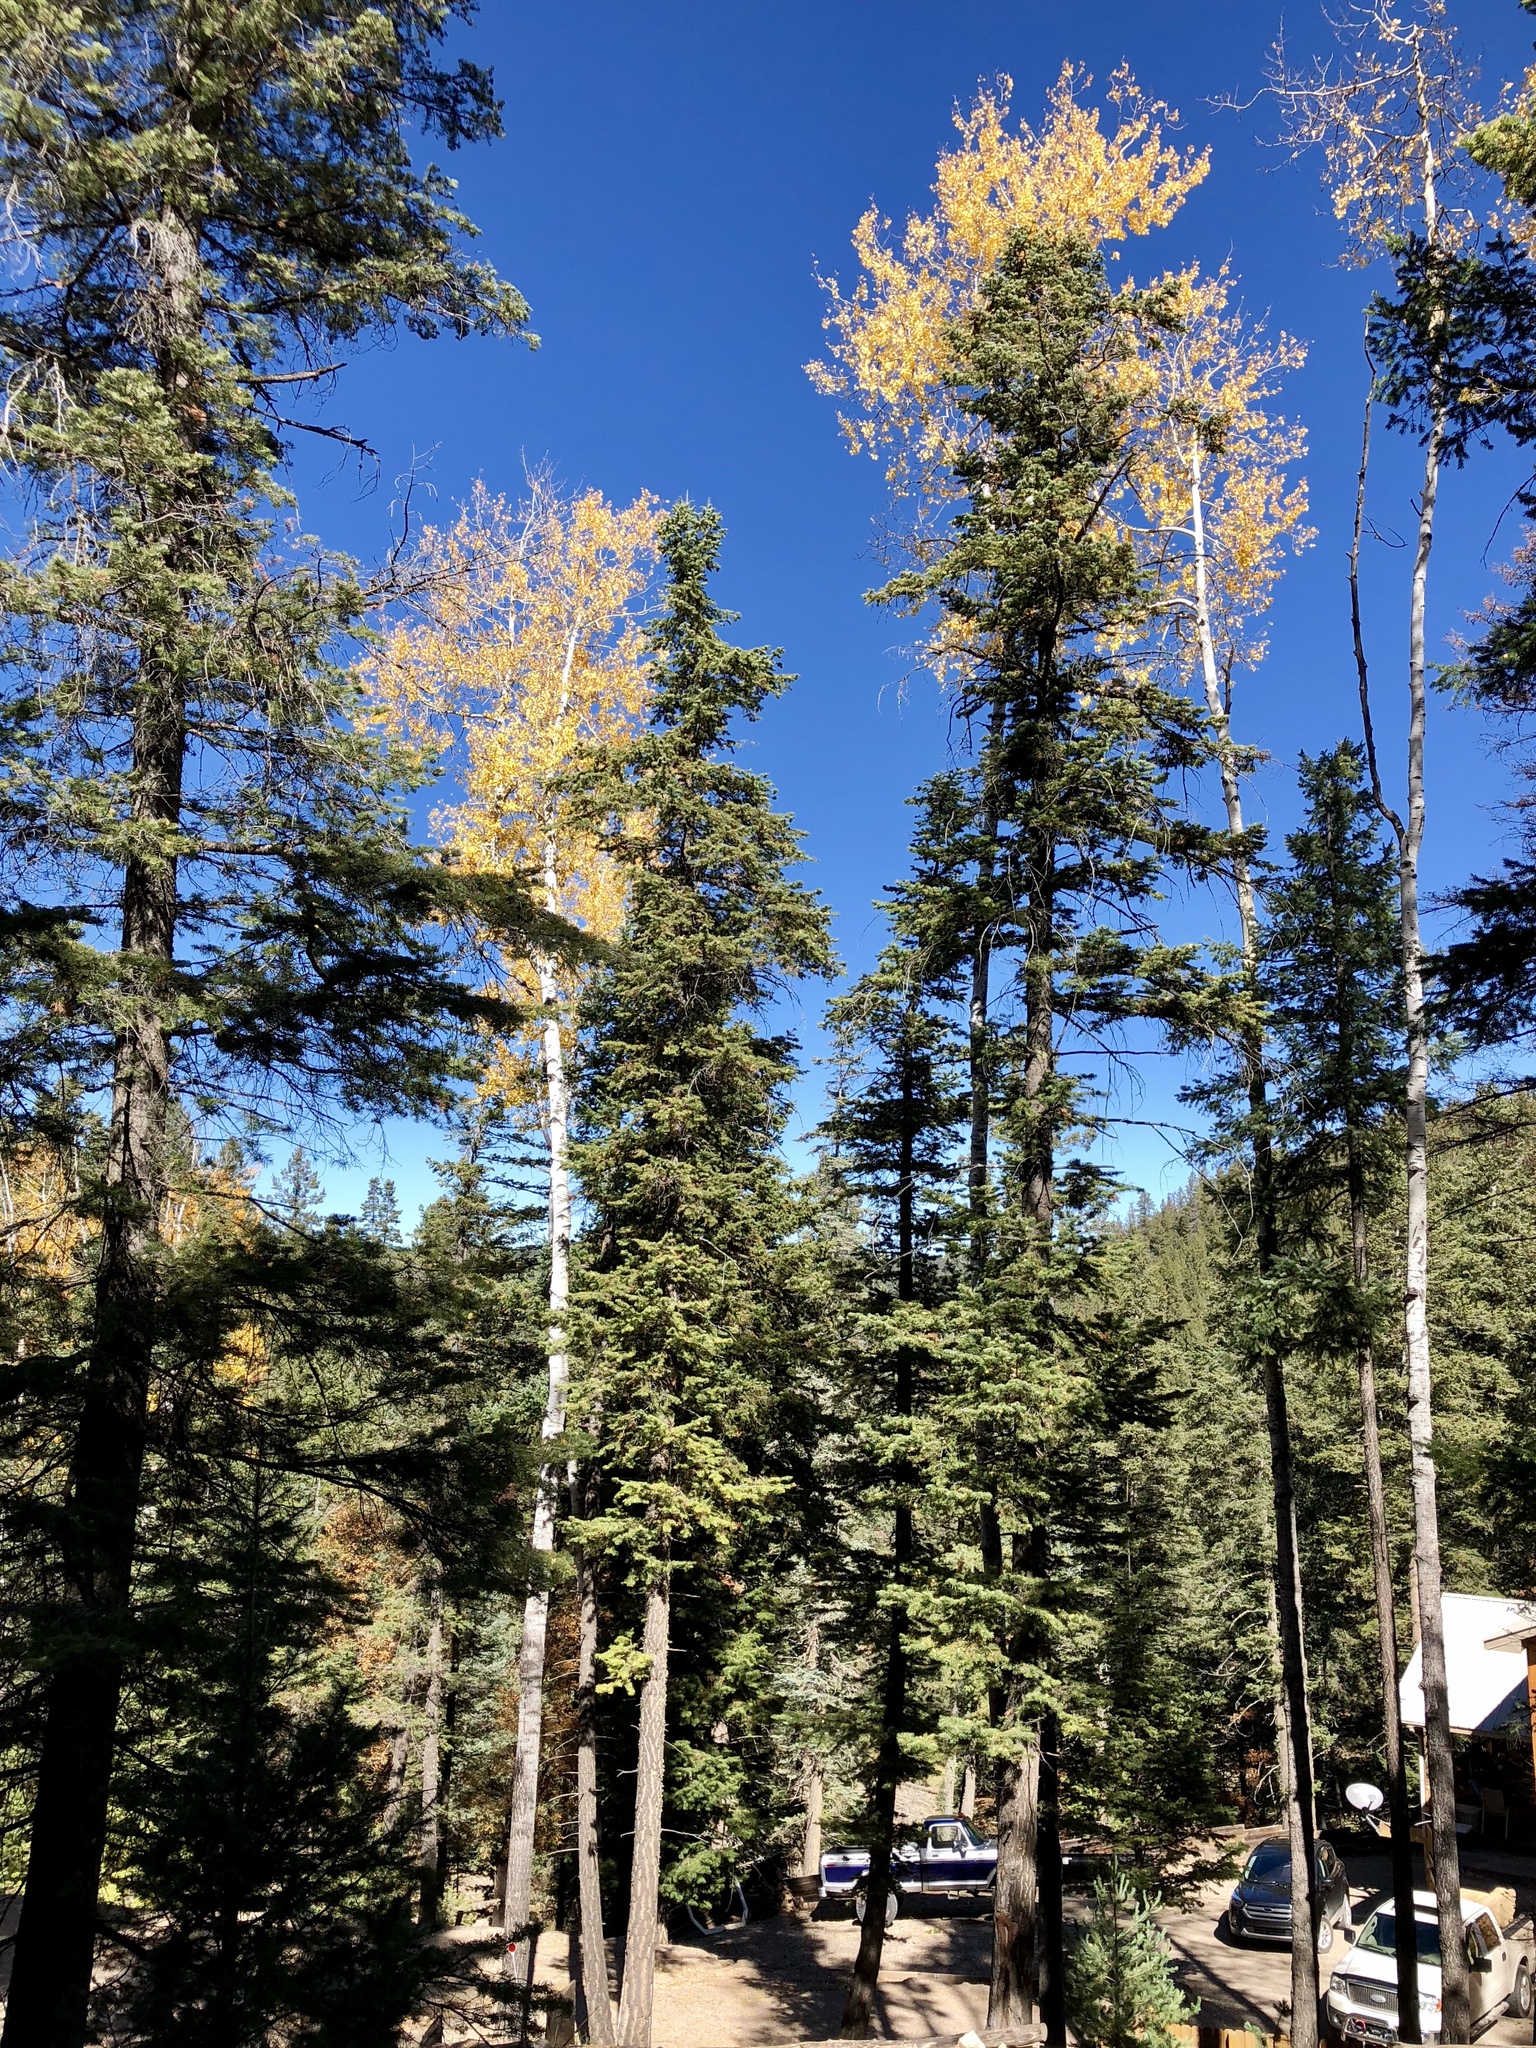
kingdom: Plantae
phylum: Tracheophyta
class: Magnoliopsida
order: Malpighiales
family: Salicaceae
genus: Populus
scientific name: Populus tremuloides
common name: Quaking aspen
